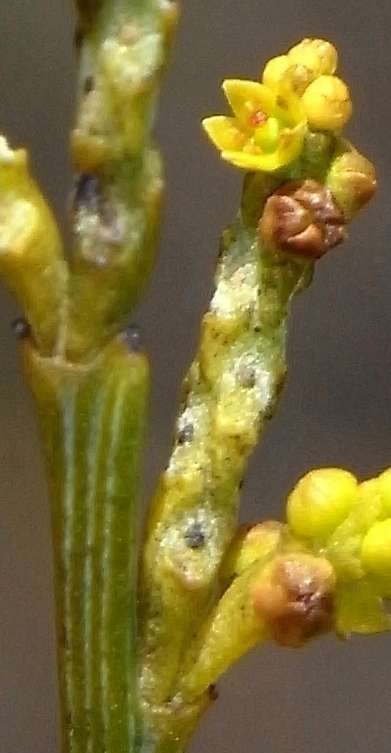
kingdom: Plantae
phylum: Tracheophyta
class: Magnoliopsida
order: Santalales
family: Santalaceae
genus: Exocarpos
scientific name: Exocarpos sparteus
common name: Broom ballart
